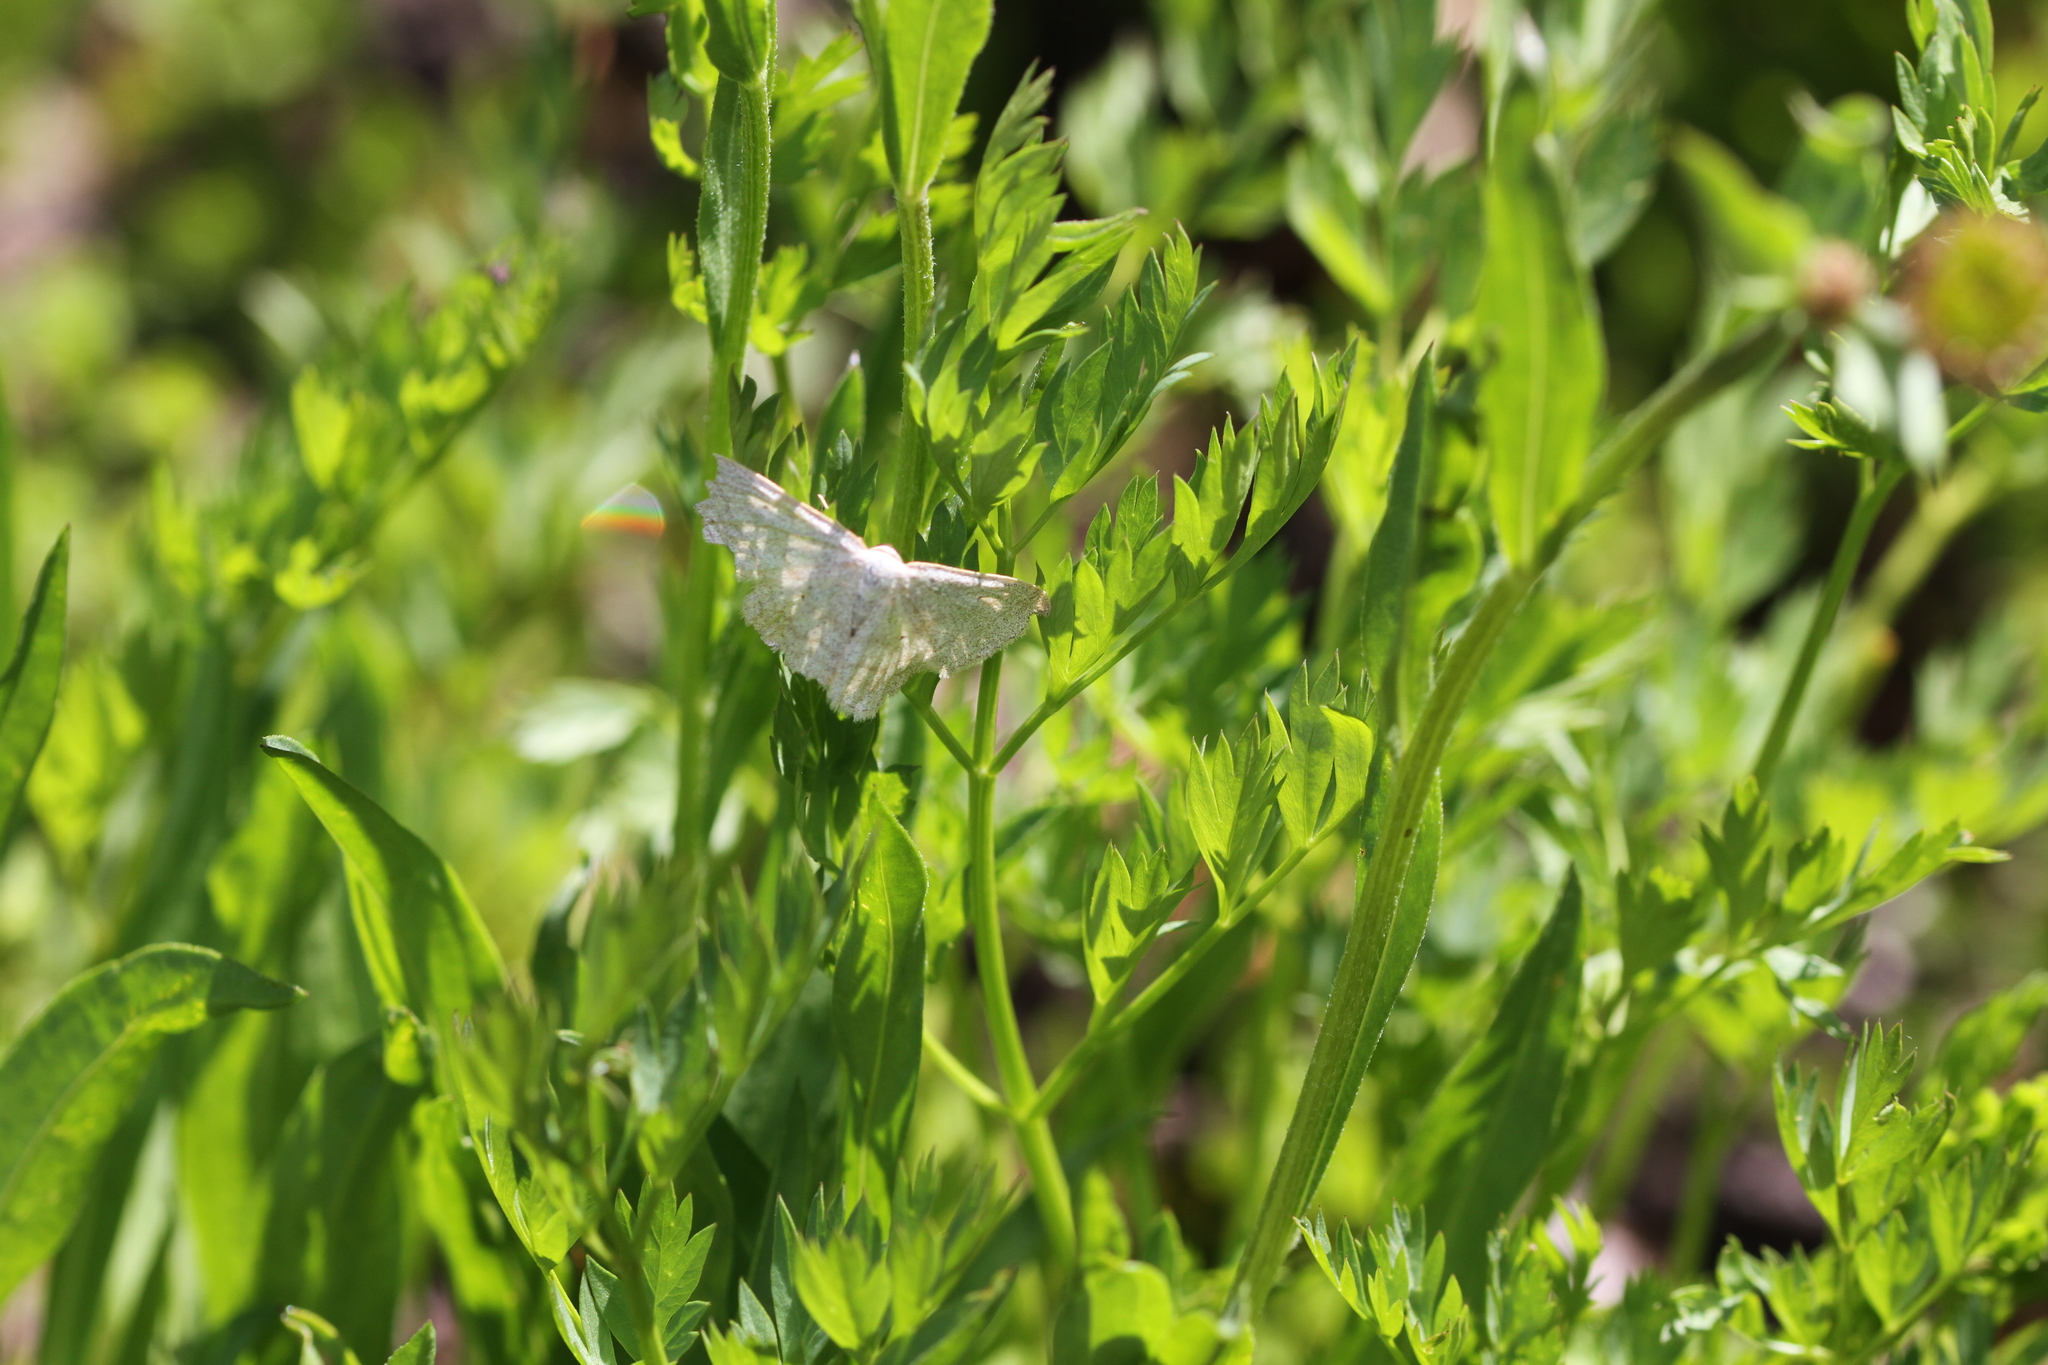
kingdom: Plantae
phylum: Tracheophyta
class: Magnoliopsida
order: Apiales
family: Apiaceae
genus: Ligusticum
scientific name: Ligusticum grayi
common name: Gray's licorice-root
